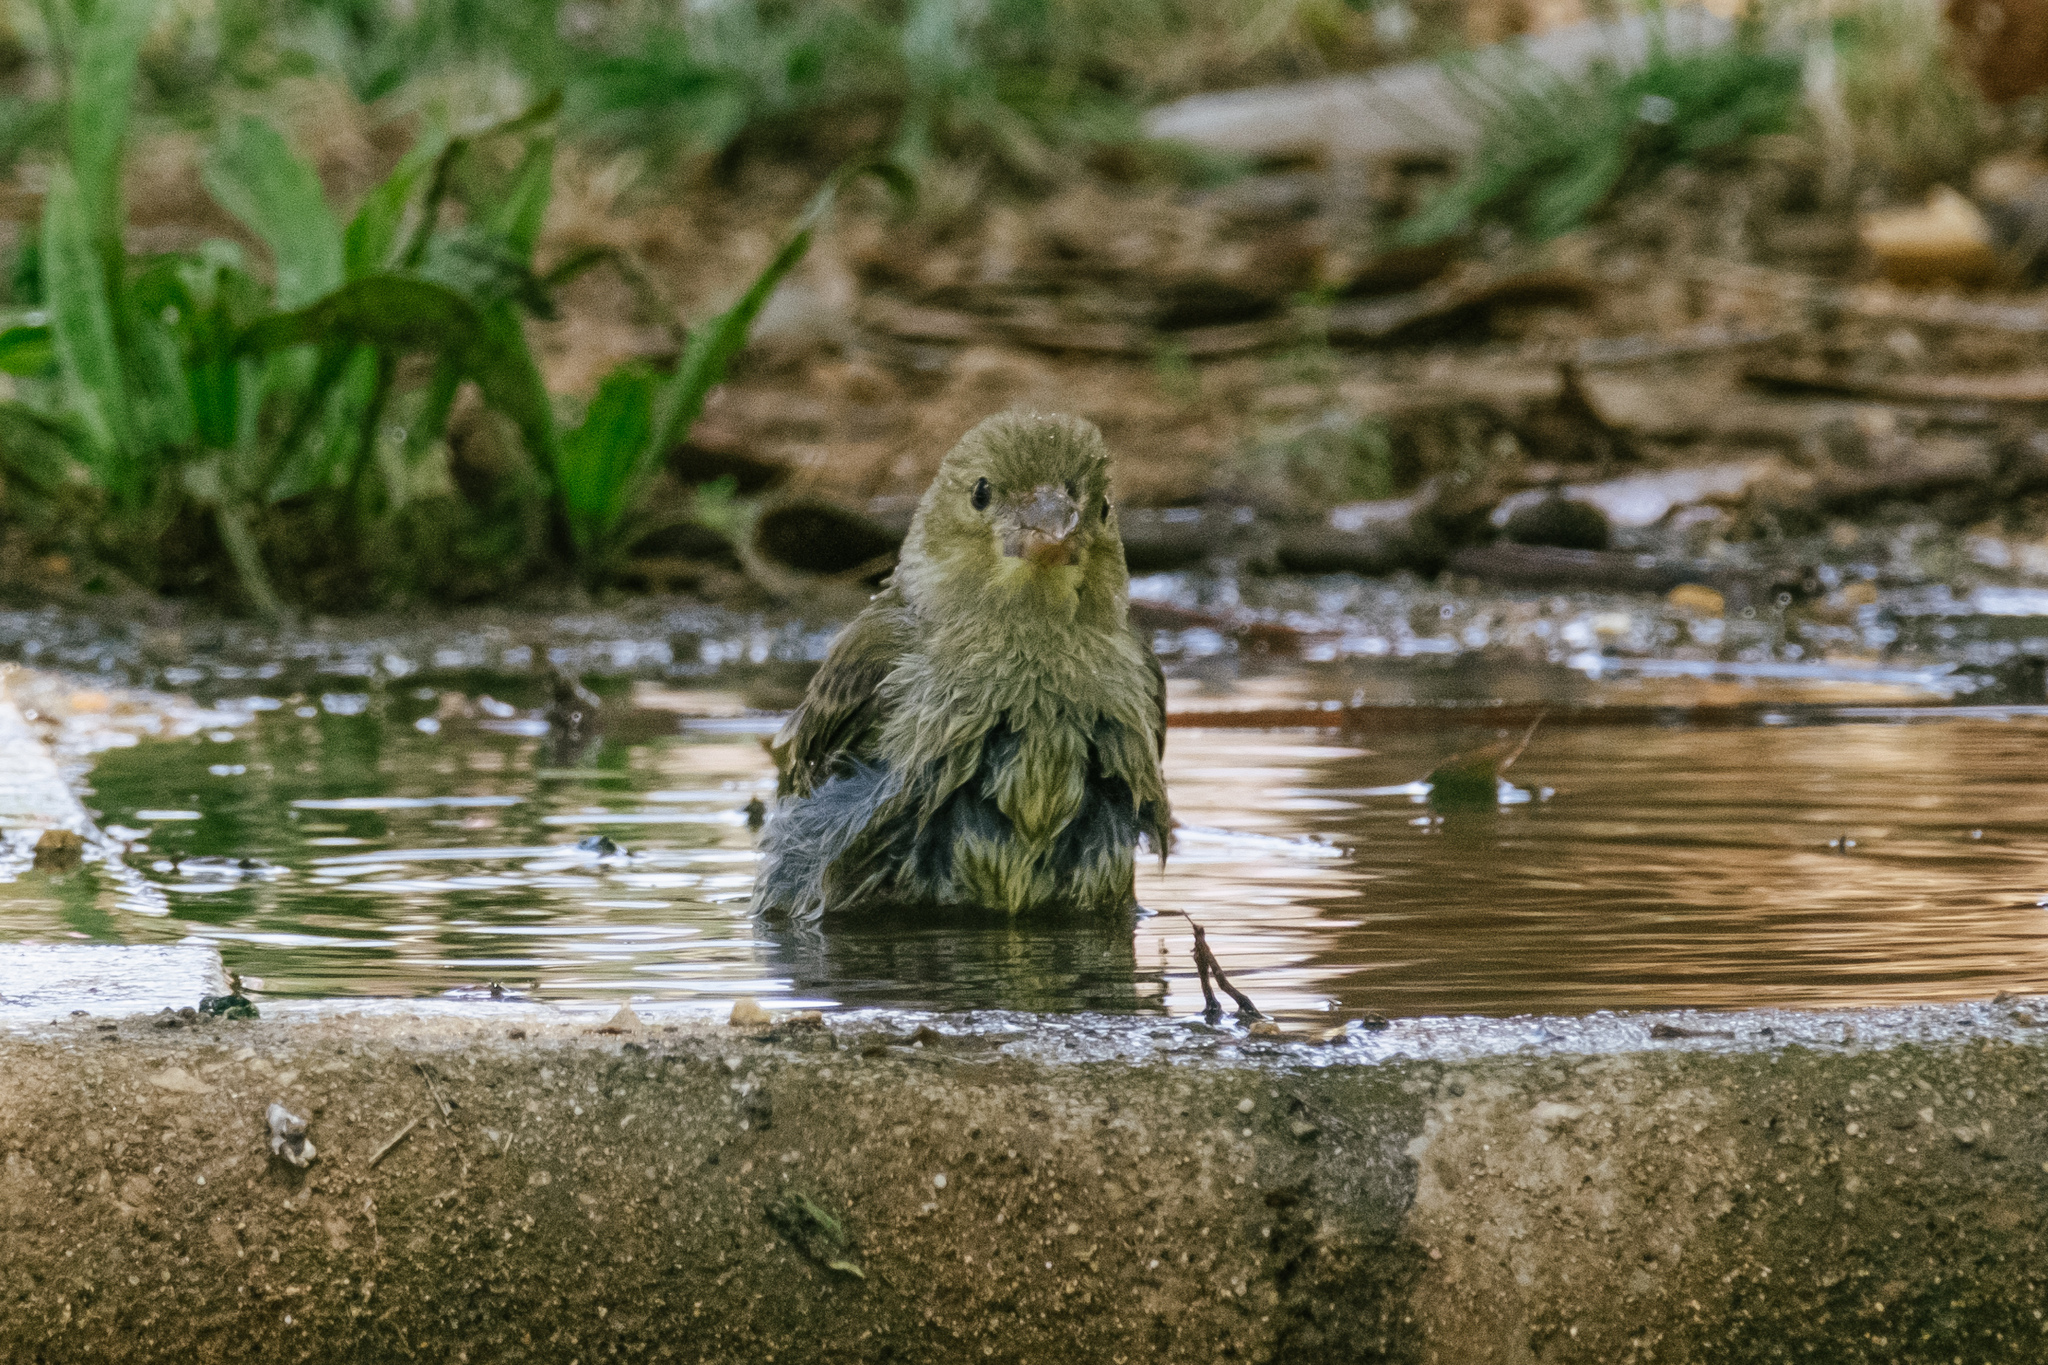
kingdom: Plantae
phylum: Tracheophyta
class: Liliopsida
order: Poales
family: Poaceae
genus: Chloris
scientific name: Chloris chloris
